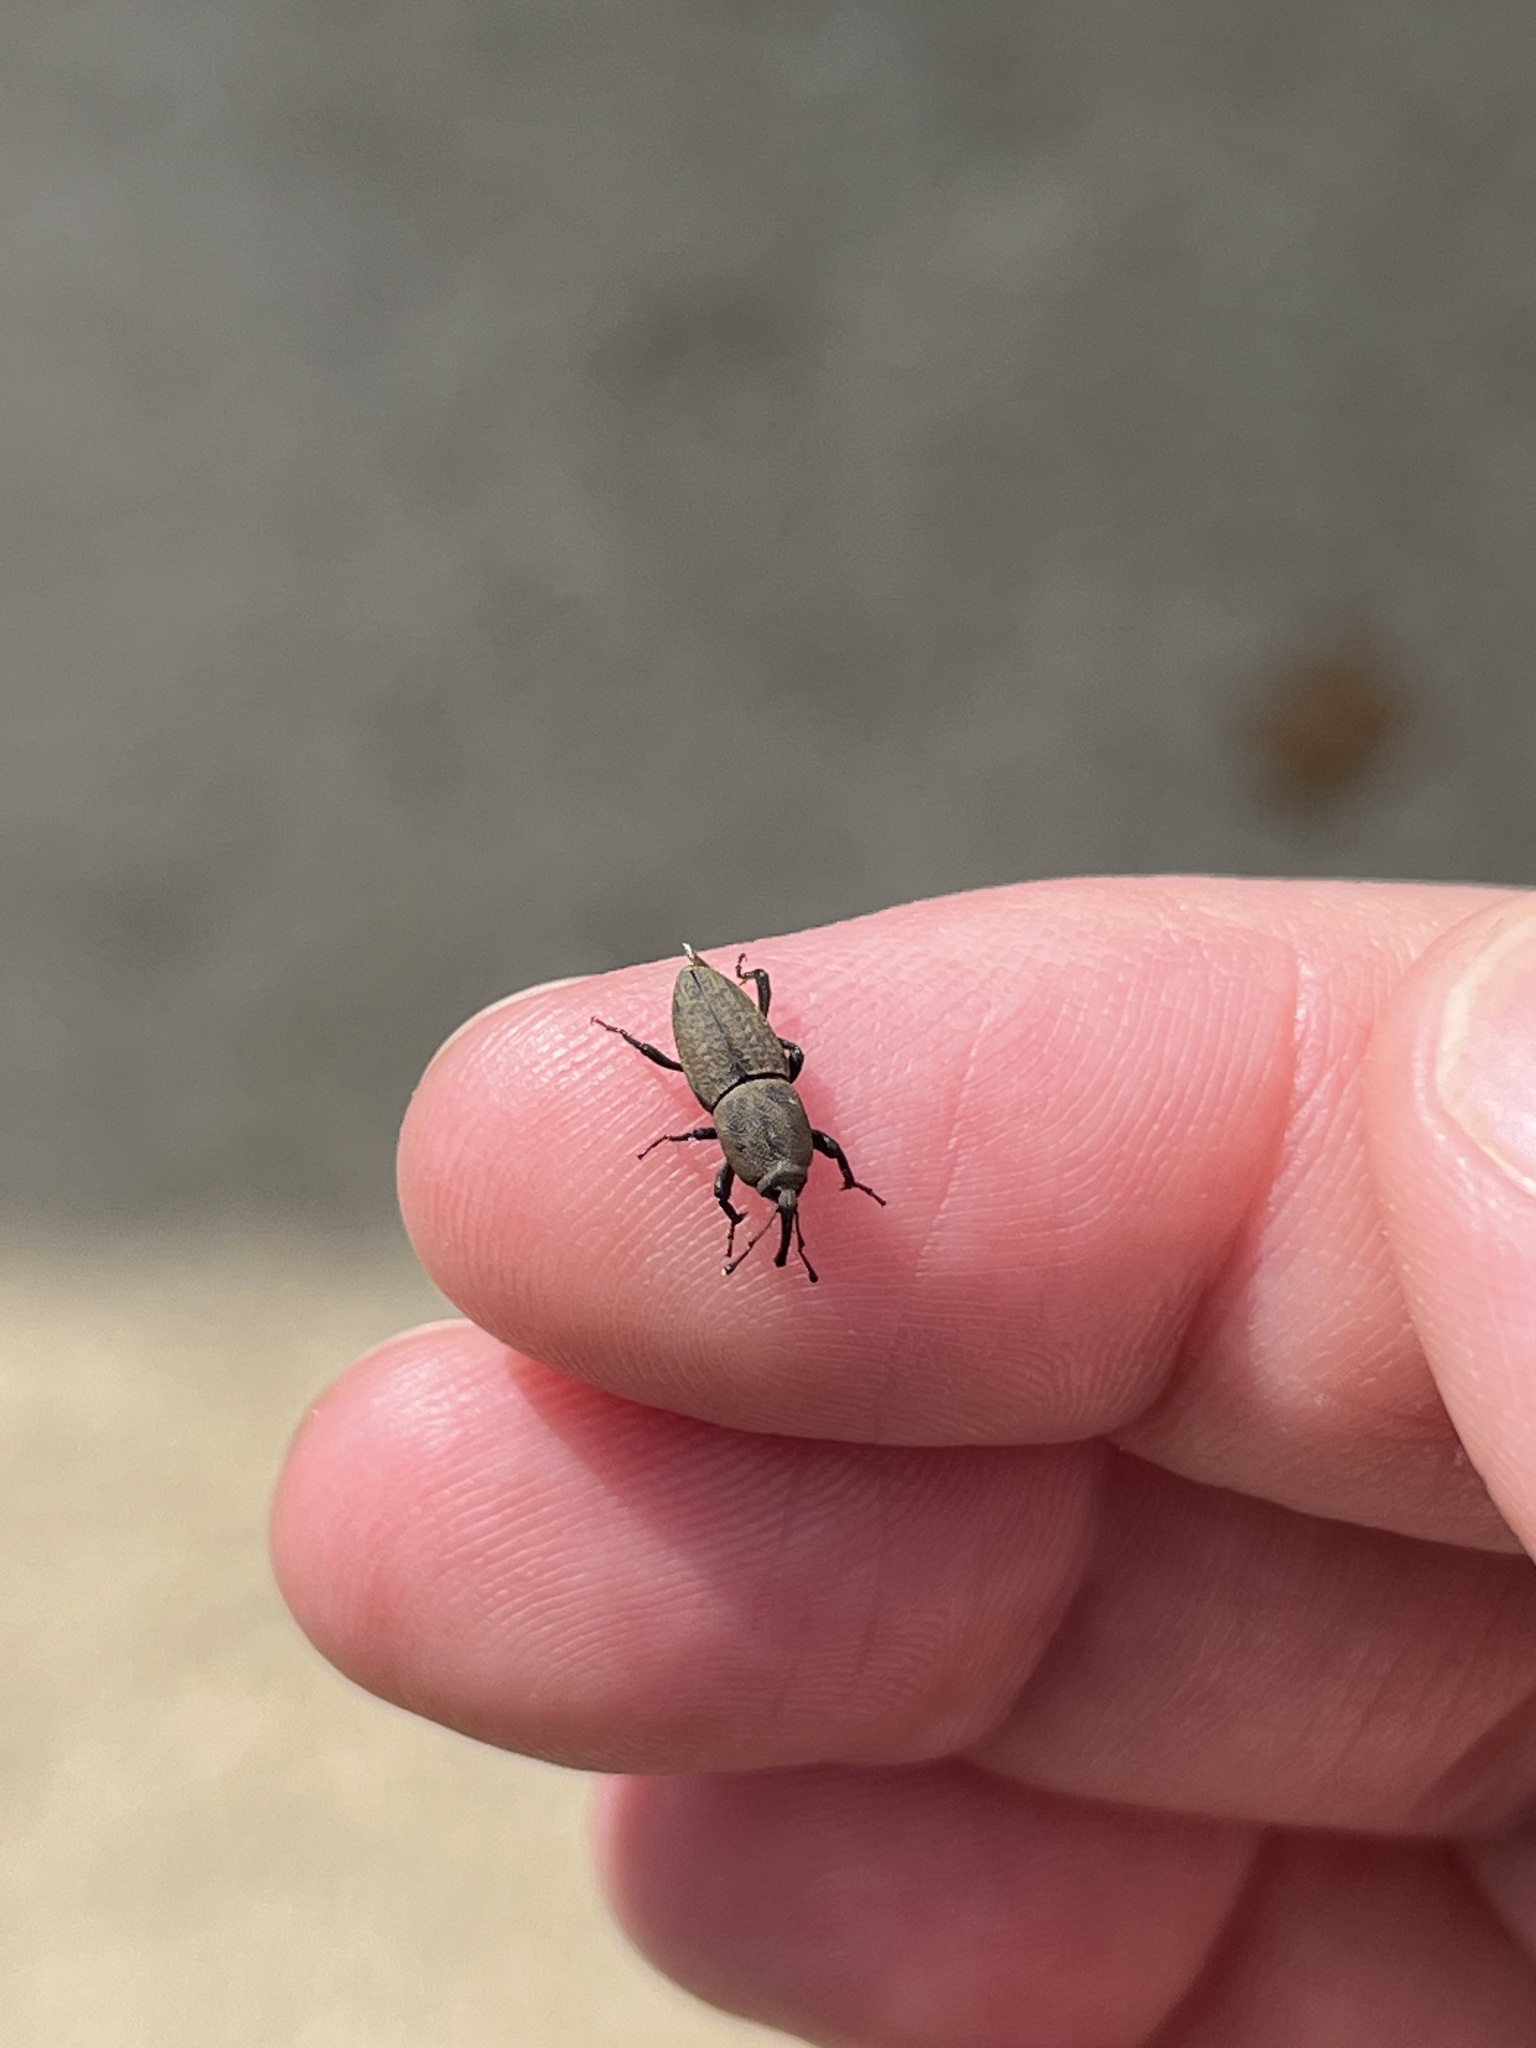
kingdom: Animalia
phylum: Arthropoda
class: Insecta
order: Coleoptera
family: Dryophthoridae
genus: Sphenophorus
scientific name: Sphenophorus interstitialis
